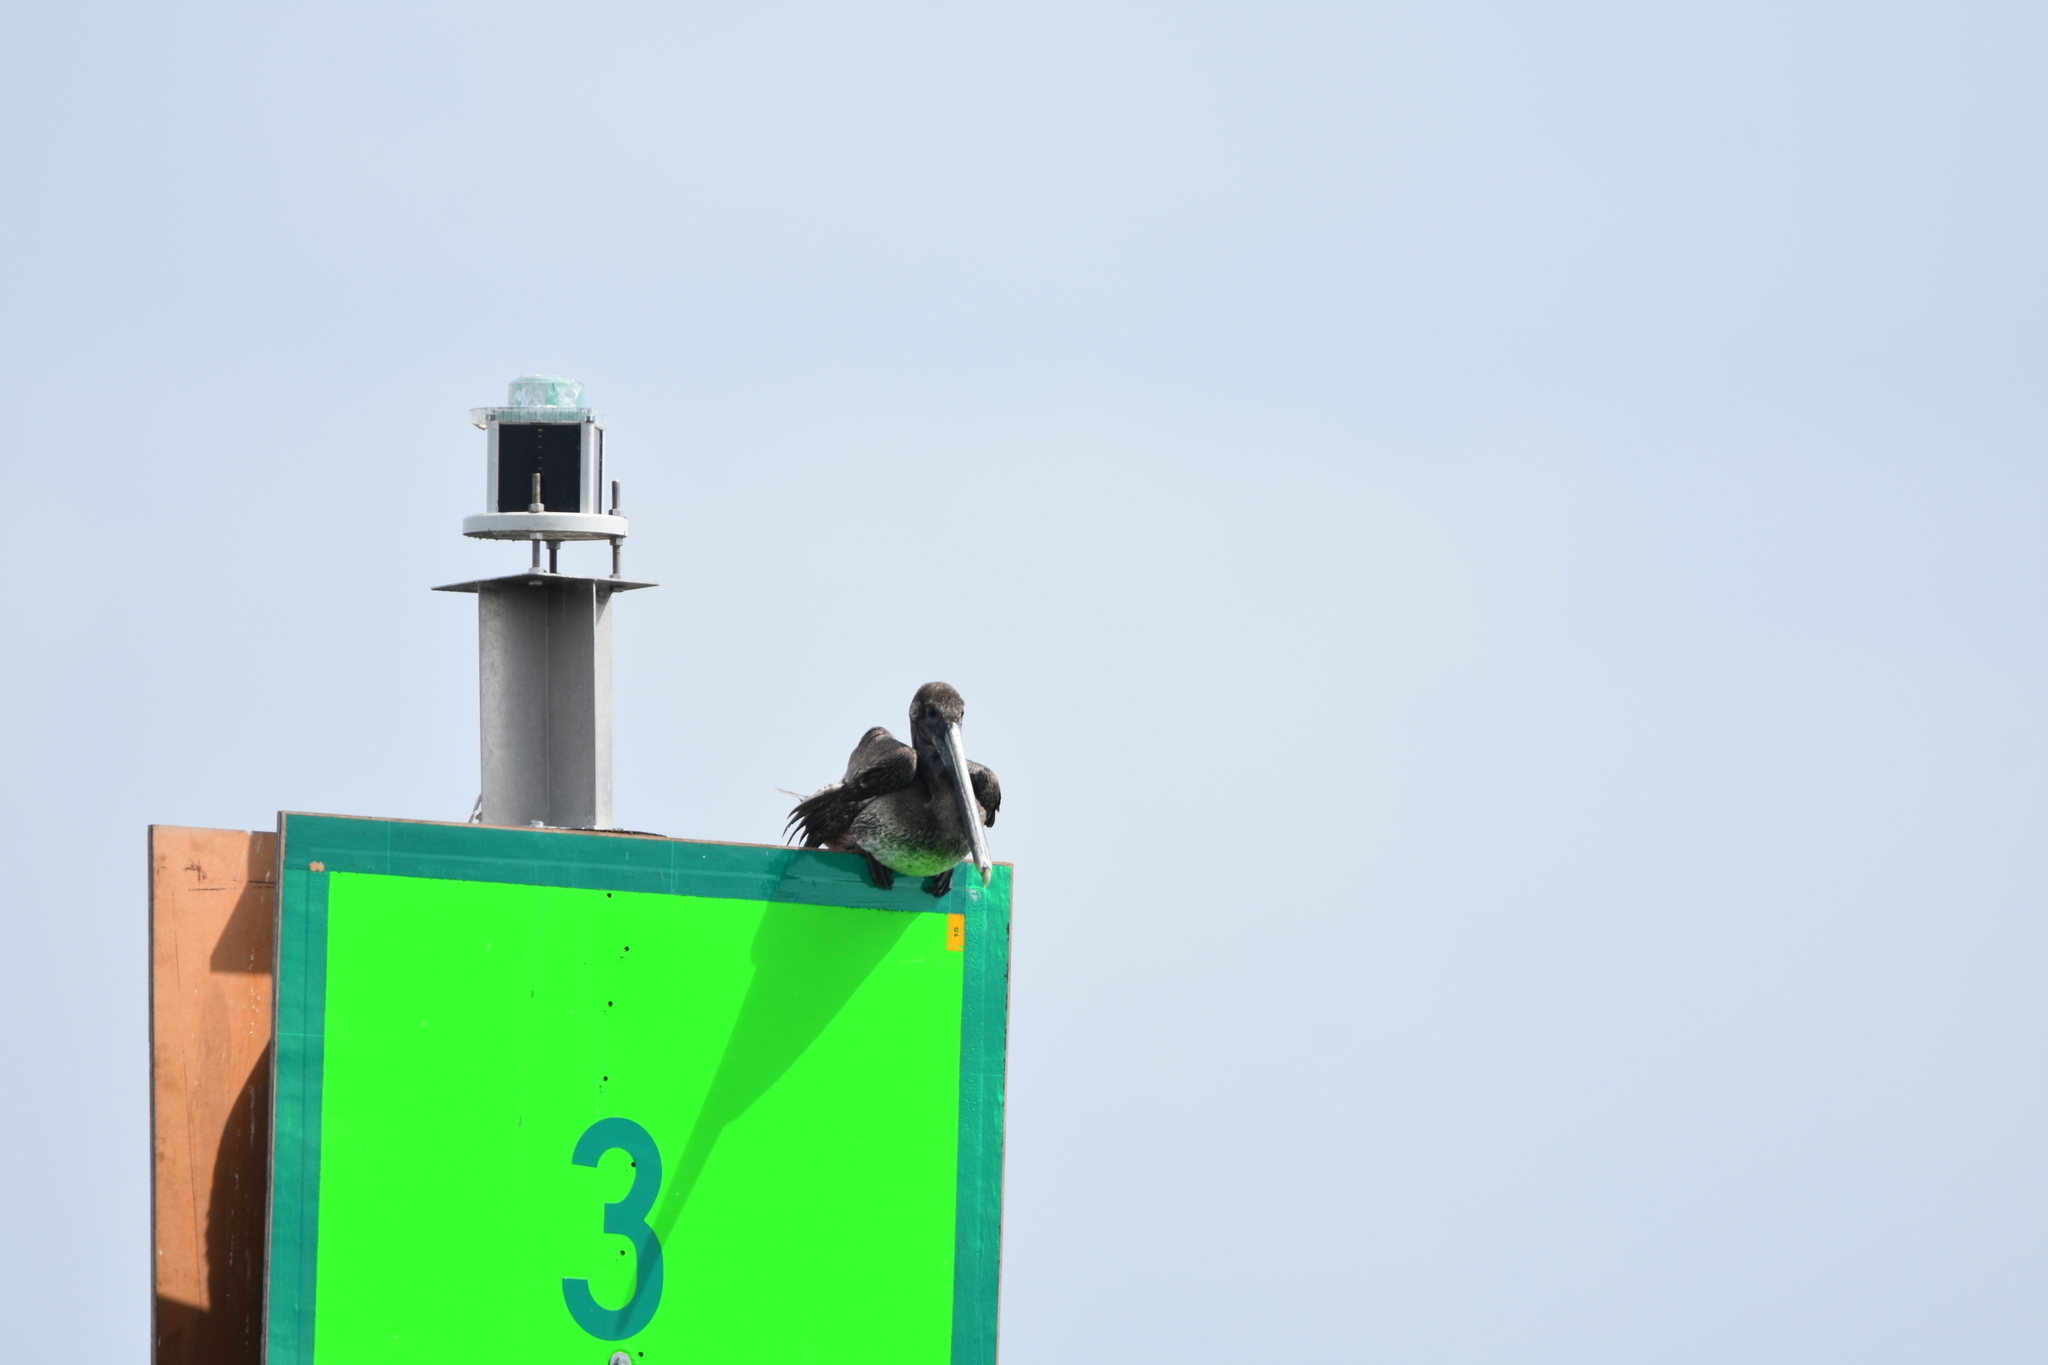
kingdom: Animalia
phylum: Chordata
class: Aves
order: Pelecaniformes
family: Pelecanidae
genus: Pelecanus
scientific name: Pelecanus occidentalis
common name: Brown pelican
